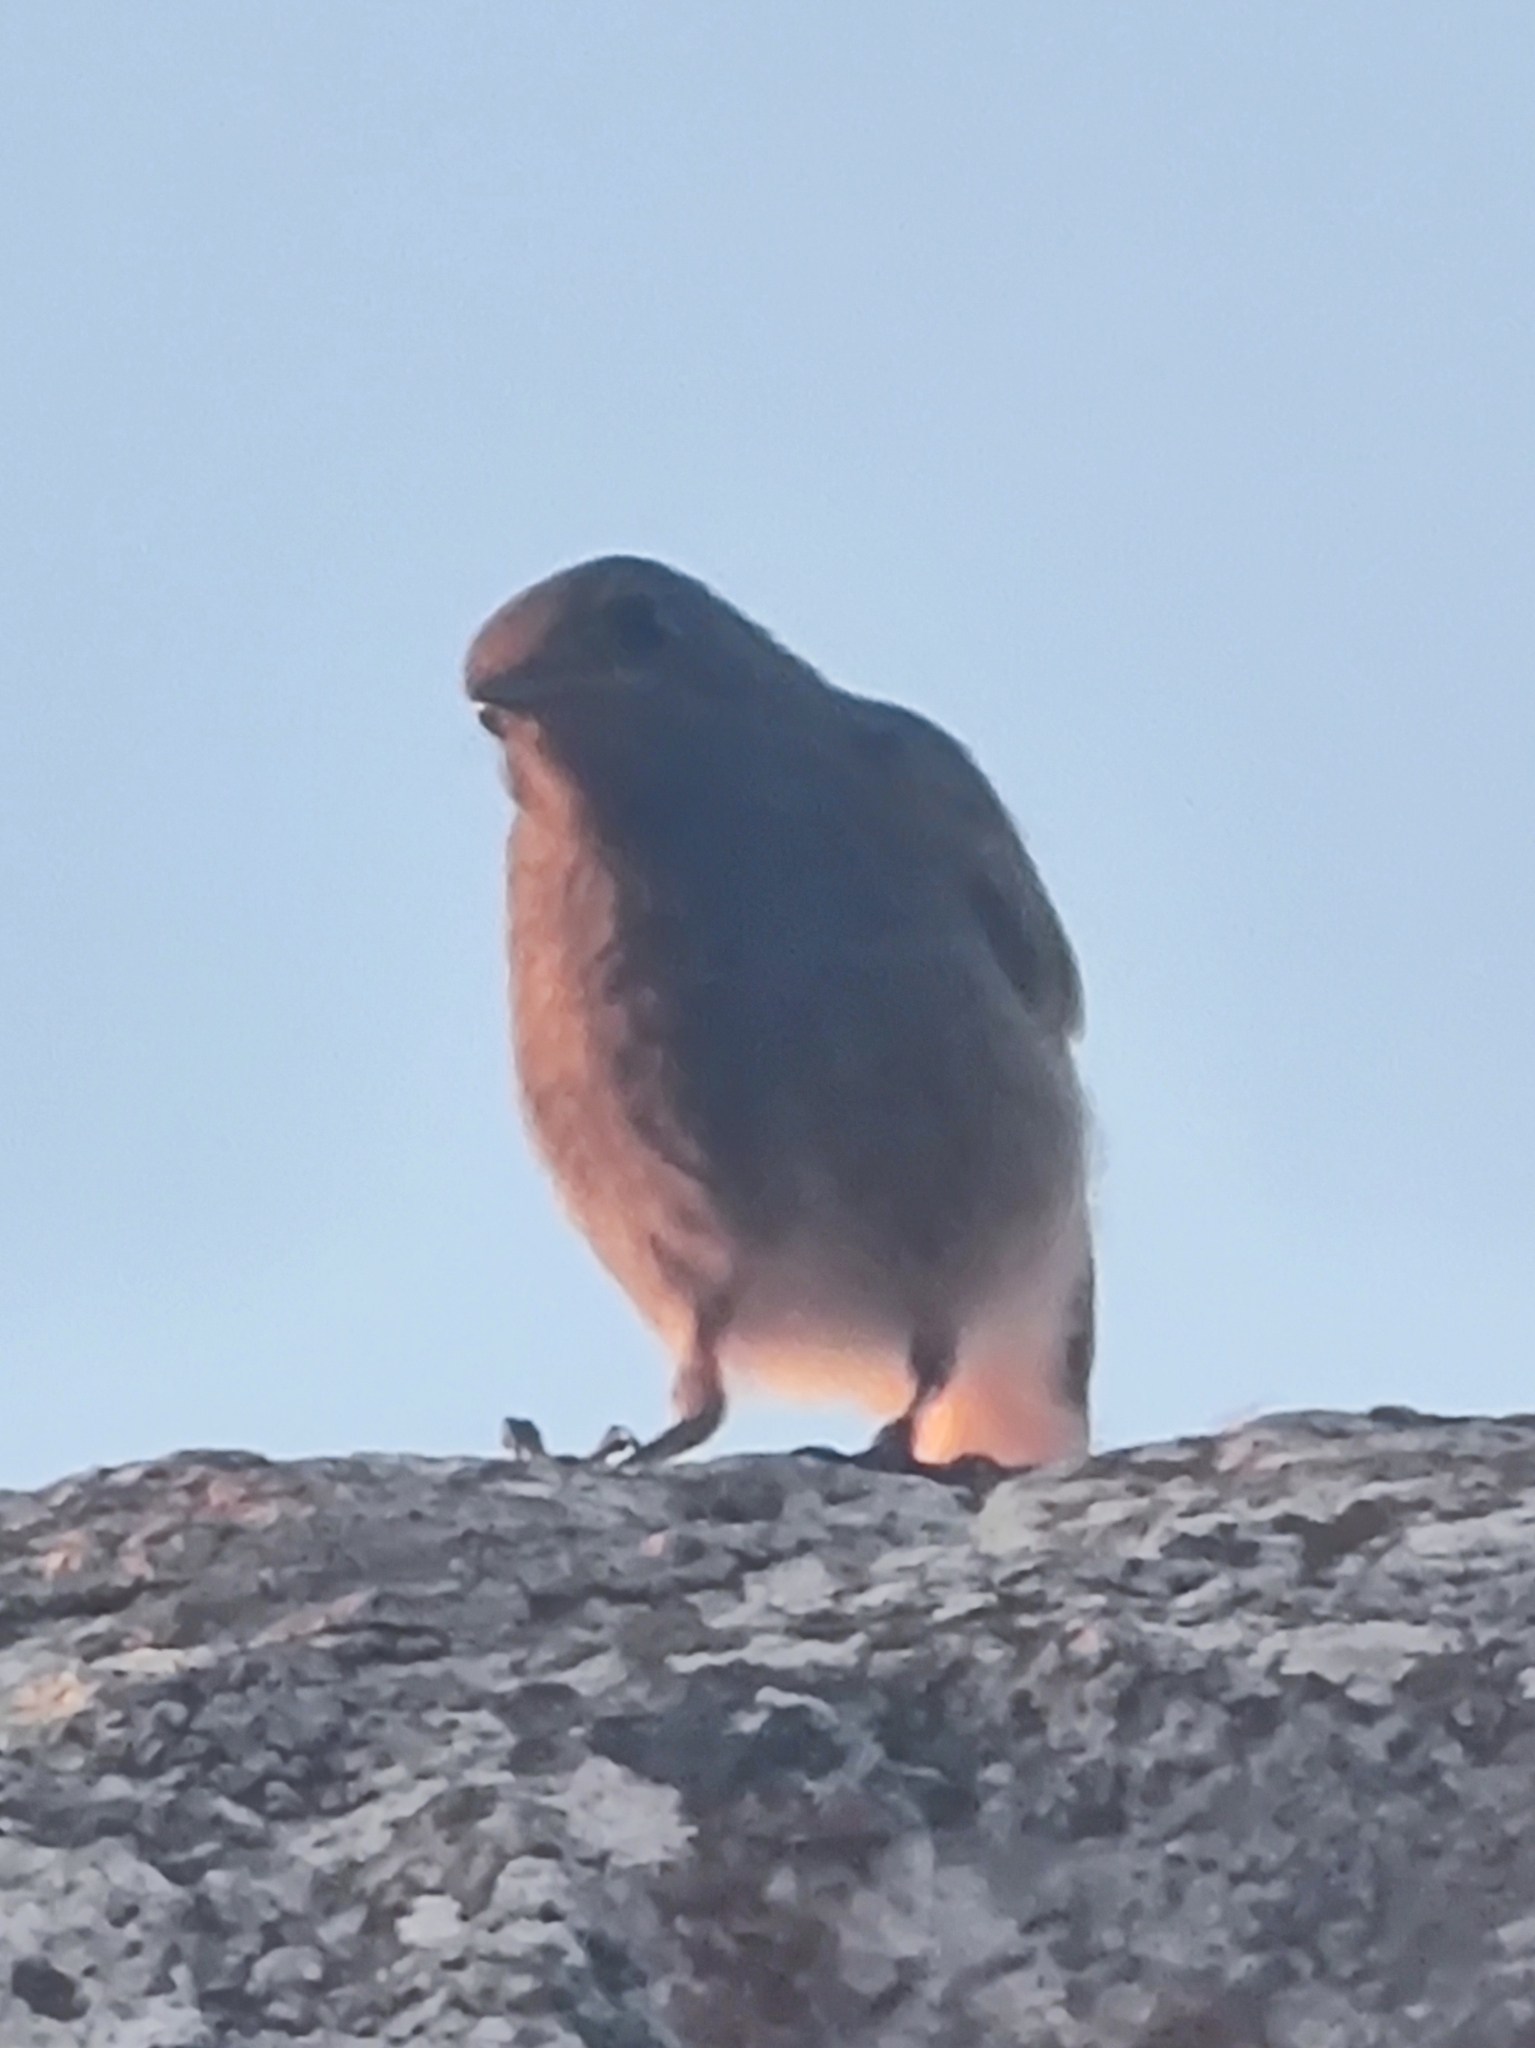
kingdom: Animalia
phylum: Chordata
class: Aves
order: Passeriformes
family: Muscicapidae
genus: Phoenicurus
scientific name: Phoenicurus ochruros
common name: Black redstart
